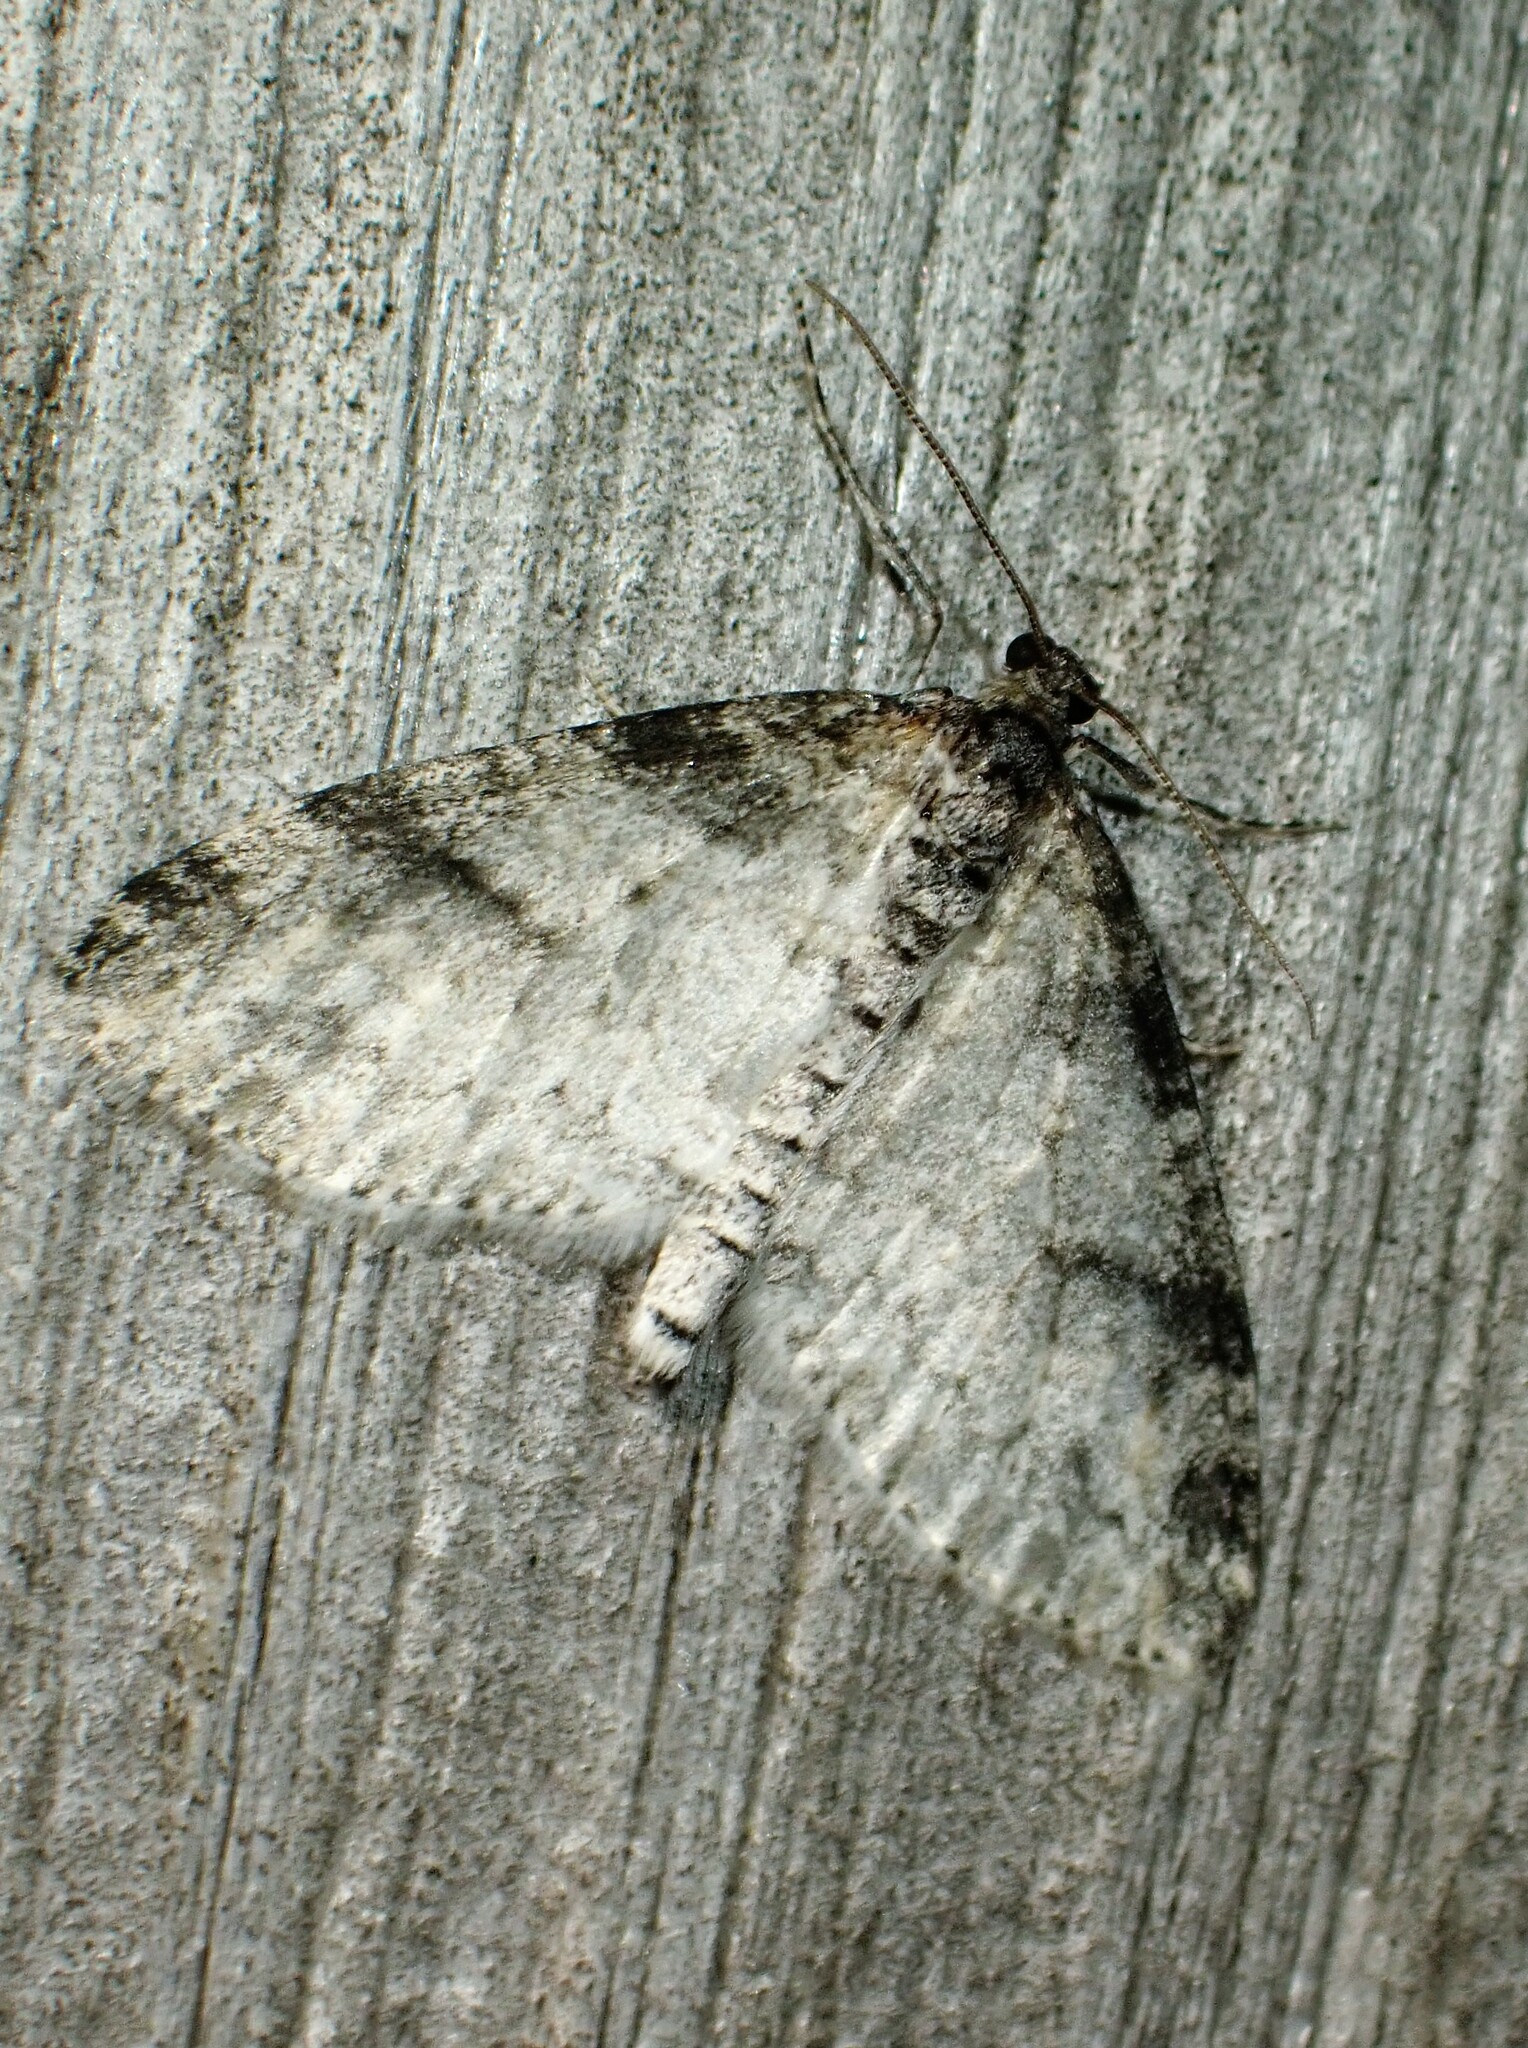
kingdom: Animalia
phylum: Arthropoda
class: Insecta
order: Lepidoptera
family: Geometridae
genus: Lobophora
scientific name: Lobophora nivigerata
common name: Powdered bigwing
